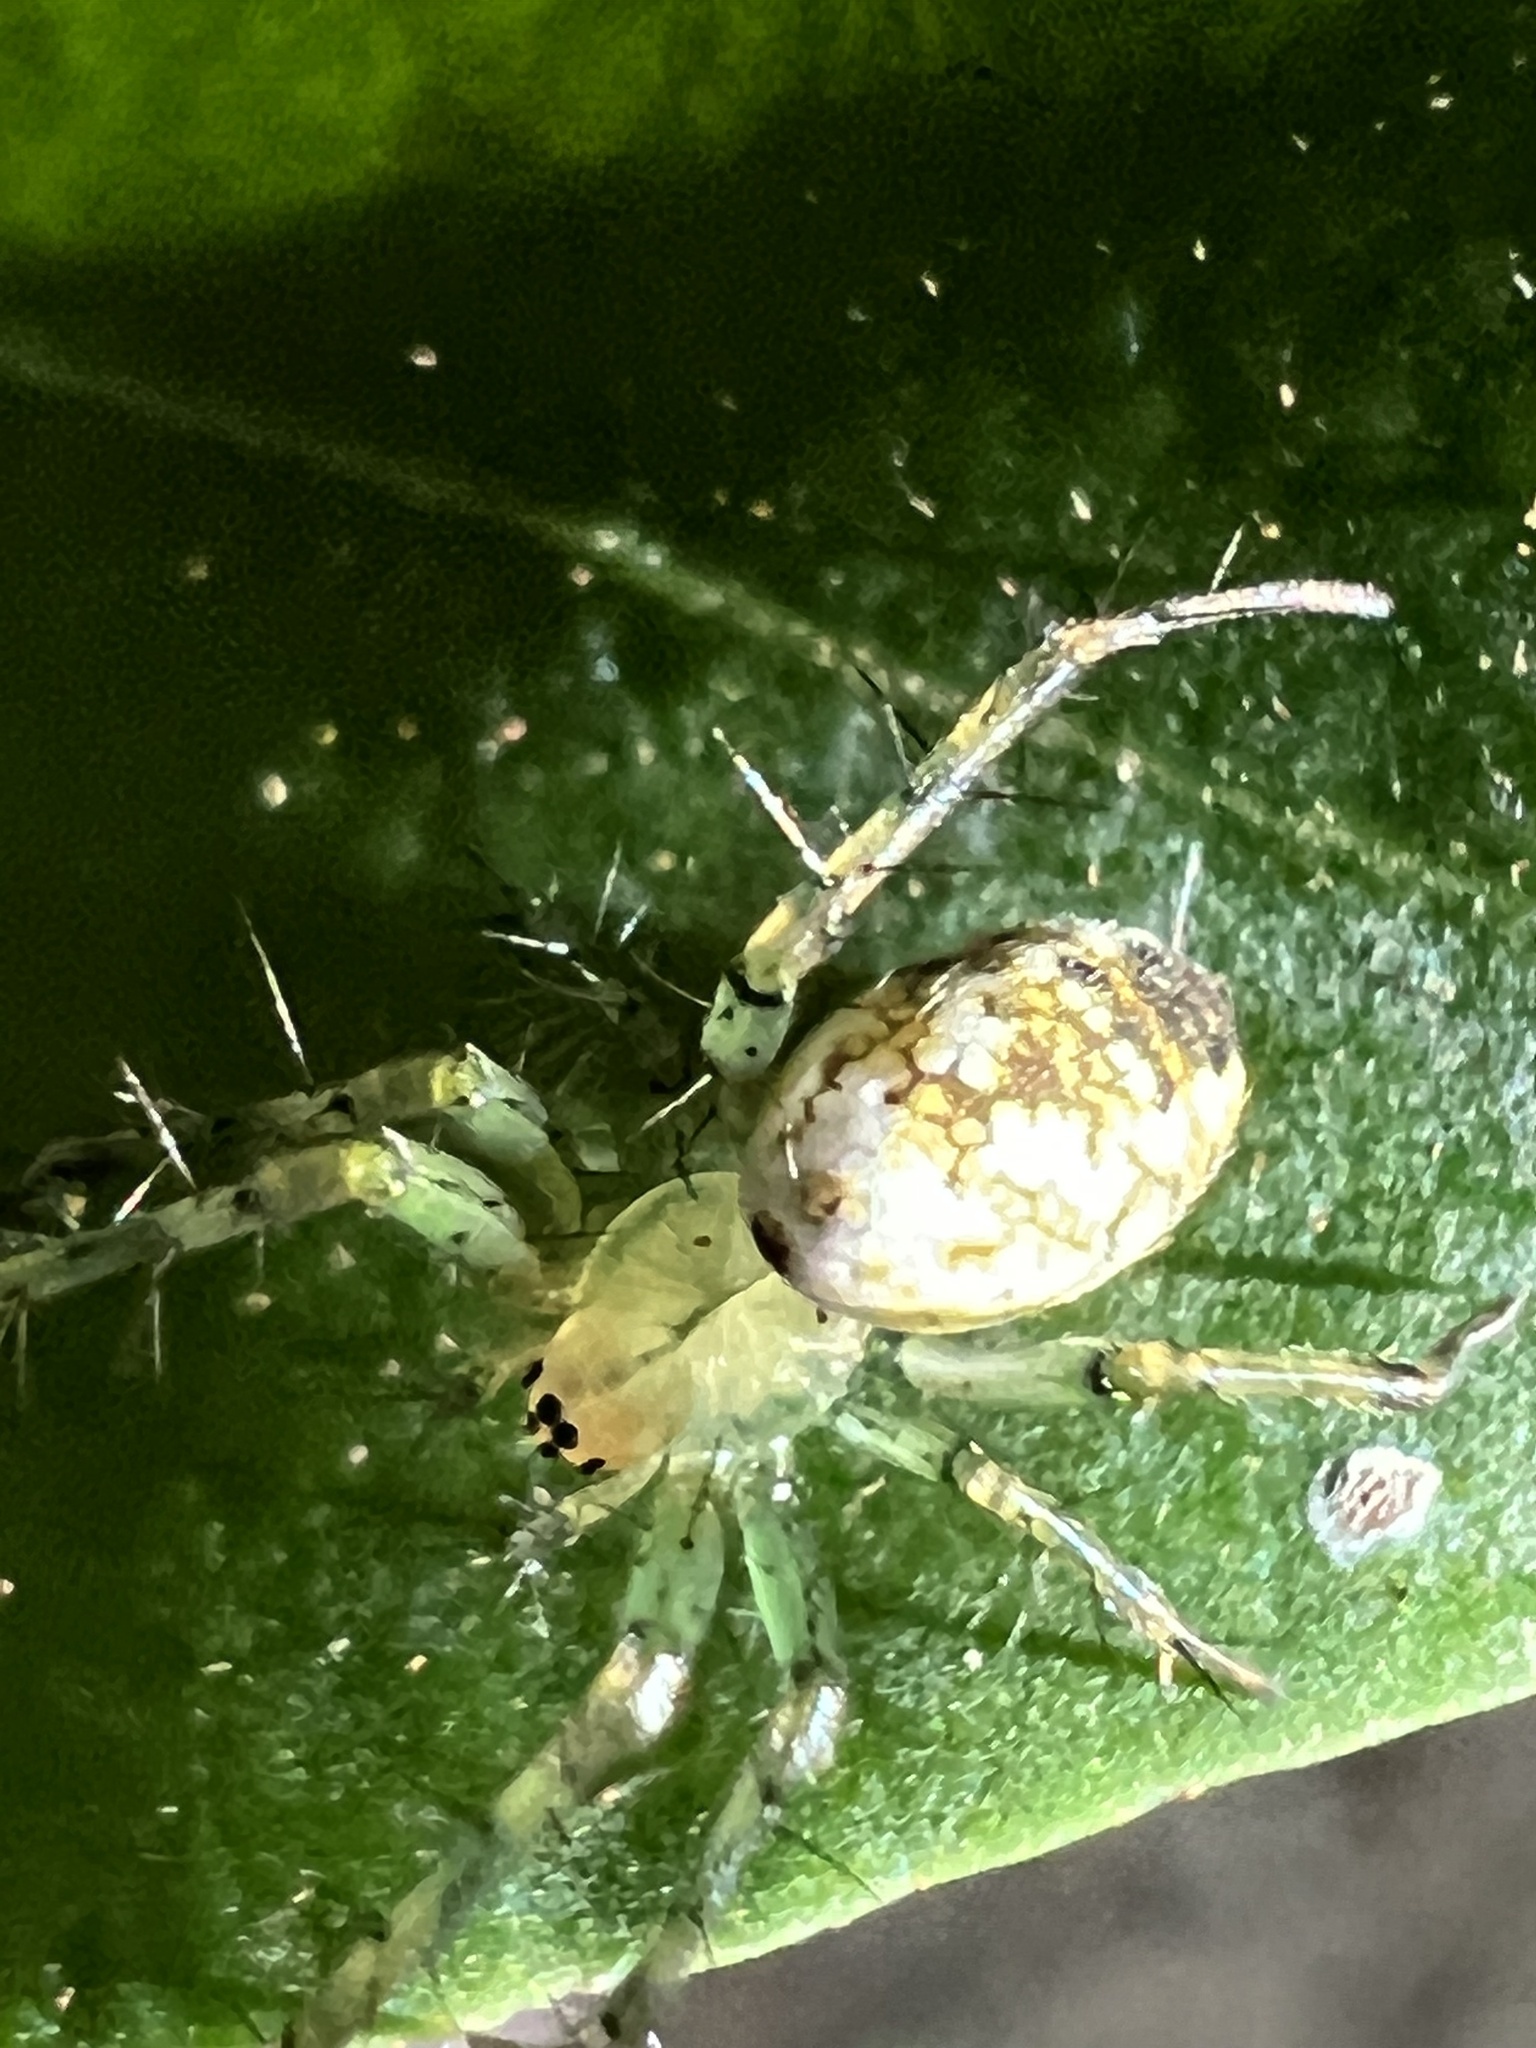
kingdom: Animalia
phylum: Arthropoda
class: Arachnida
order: Araneae
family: Araneidae
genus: Mangora
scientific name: Mangora maculata
